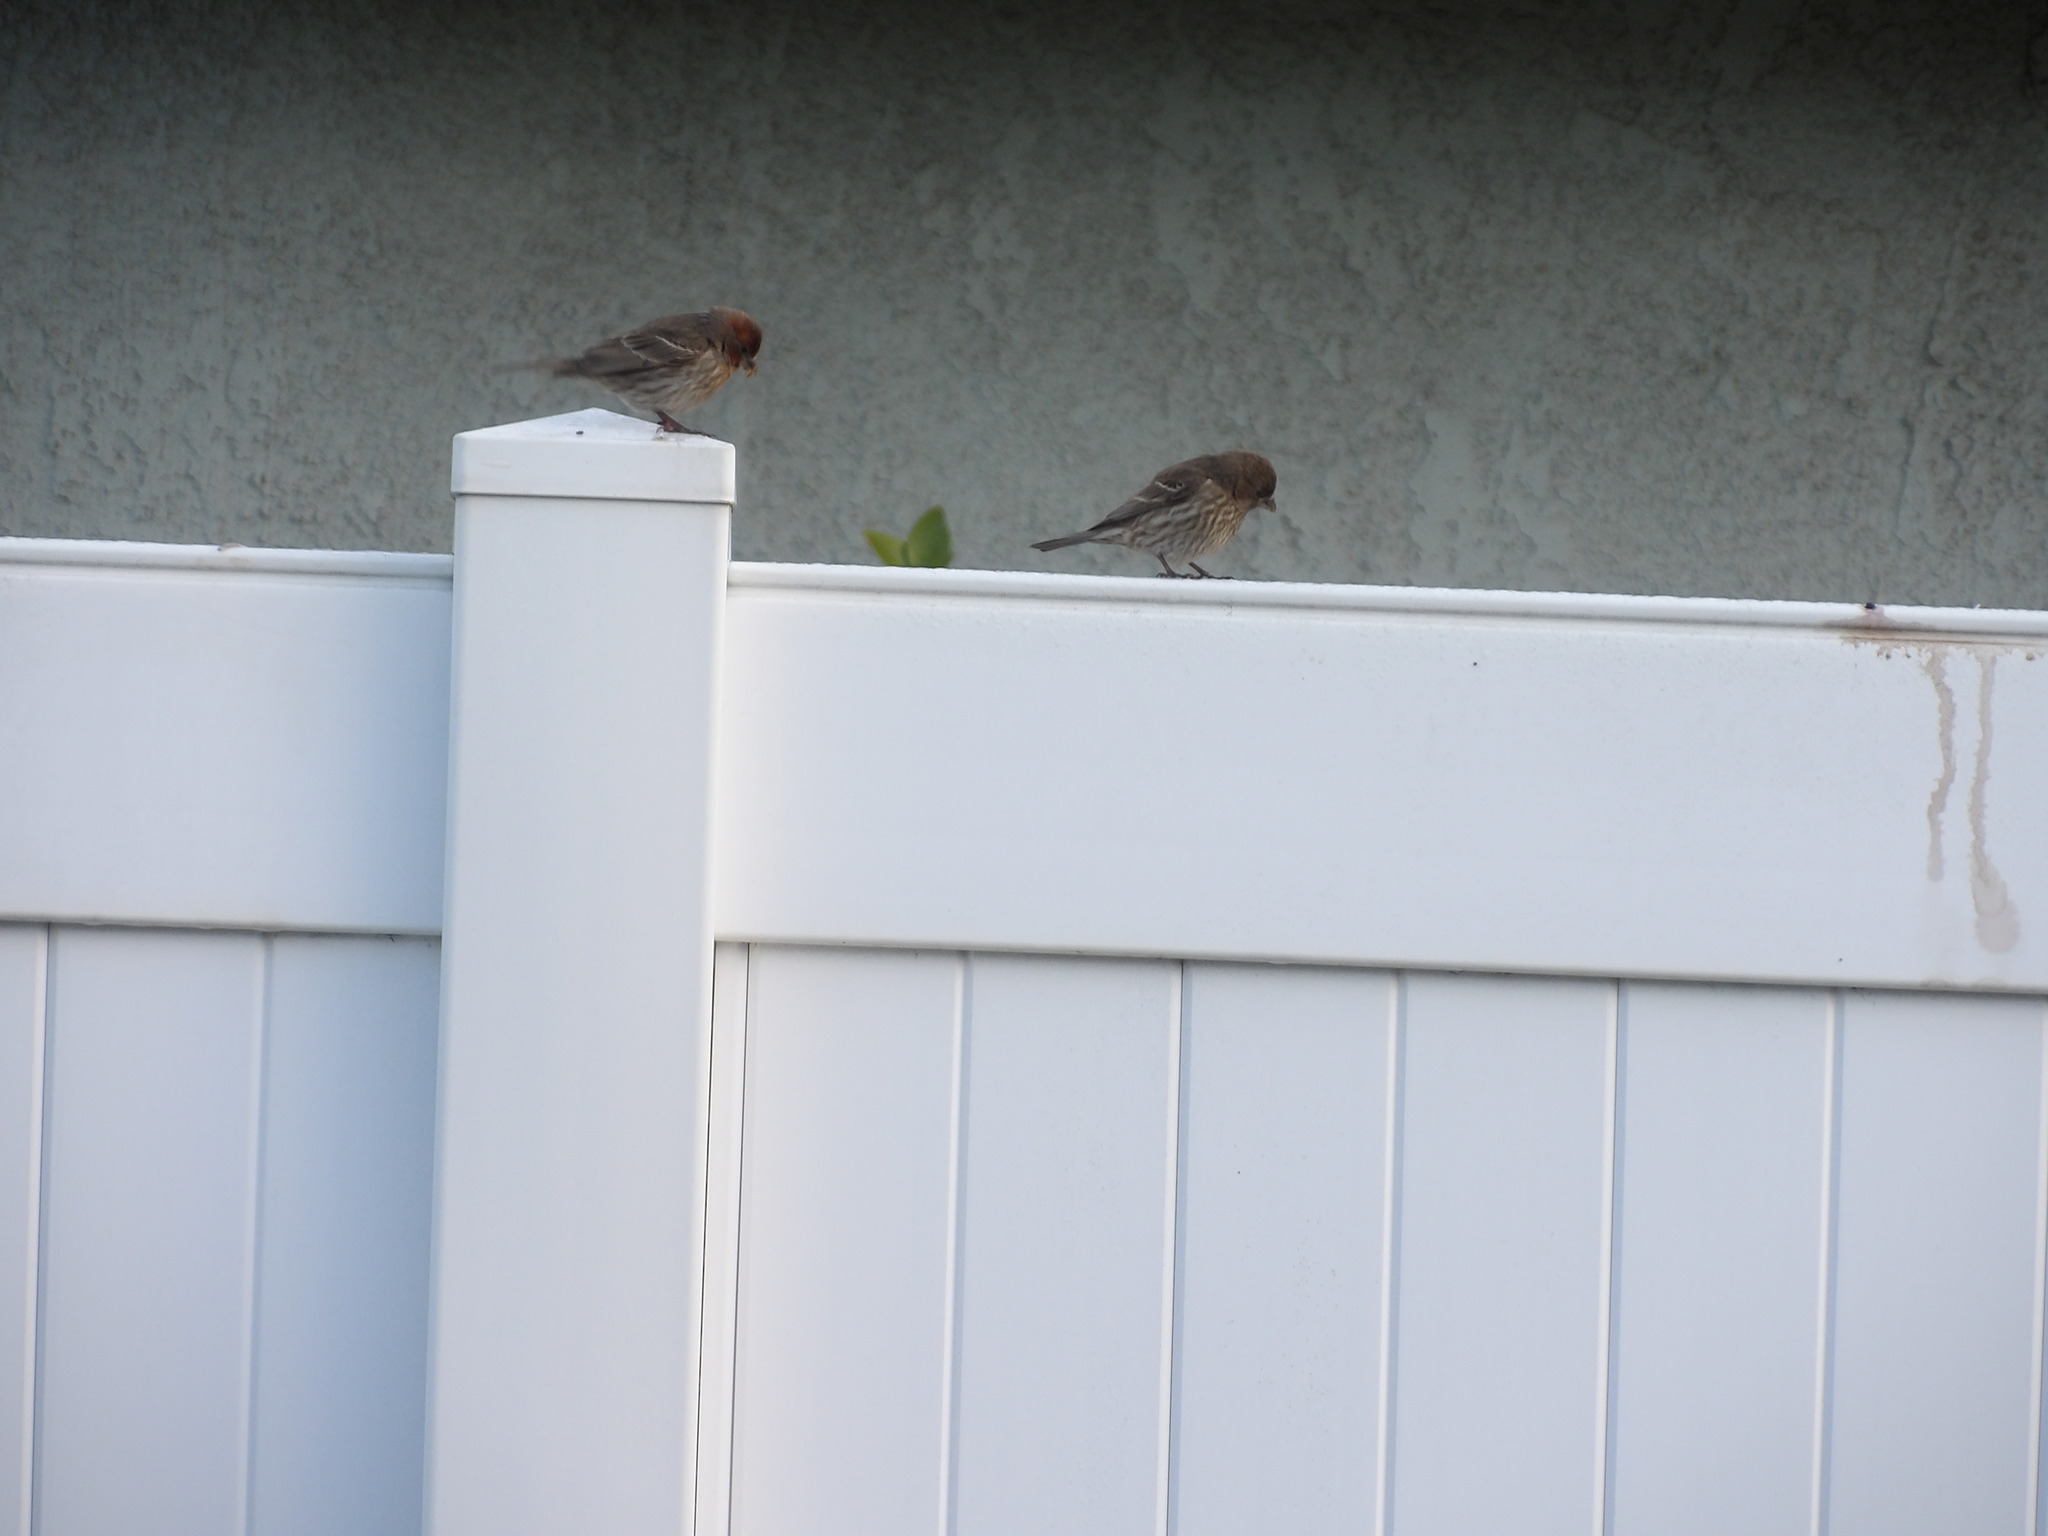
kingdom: Animalia
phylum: Chordata
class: Aves
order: Passeriformes
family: Fringillidae
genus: Haemorhous
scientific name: Haemorhous mexicanus
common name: House finch
